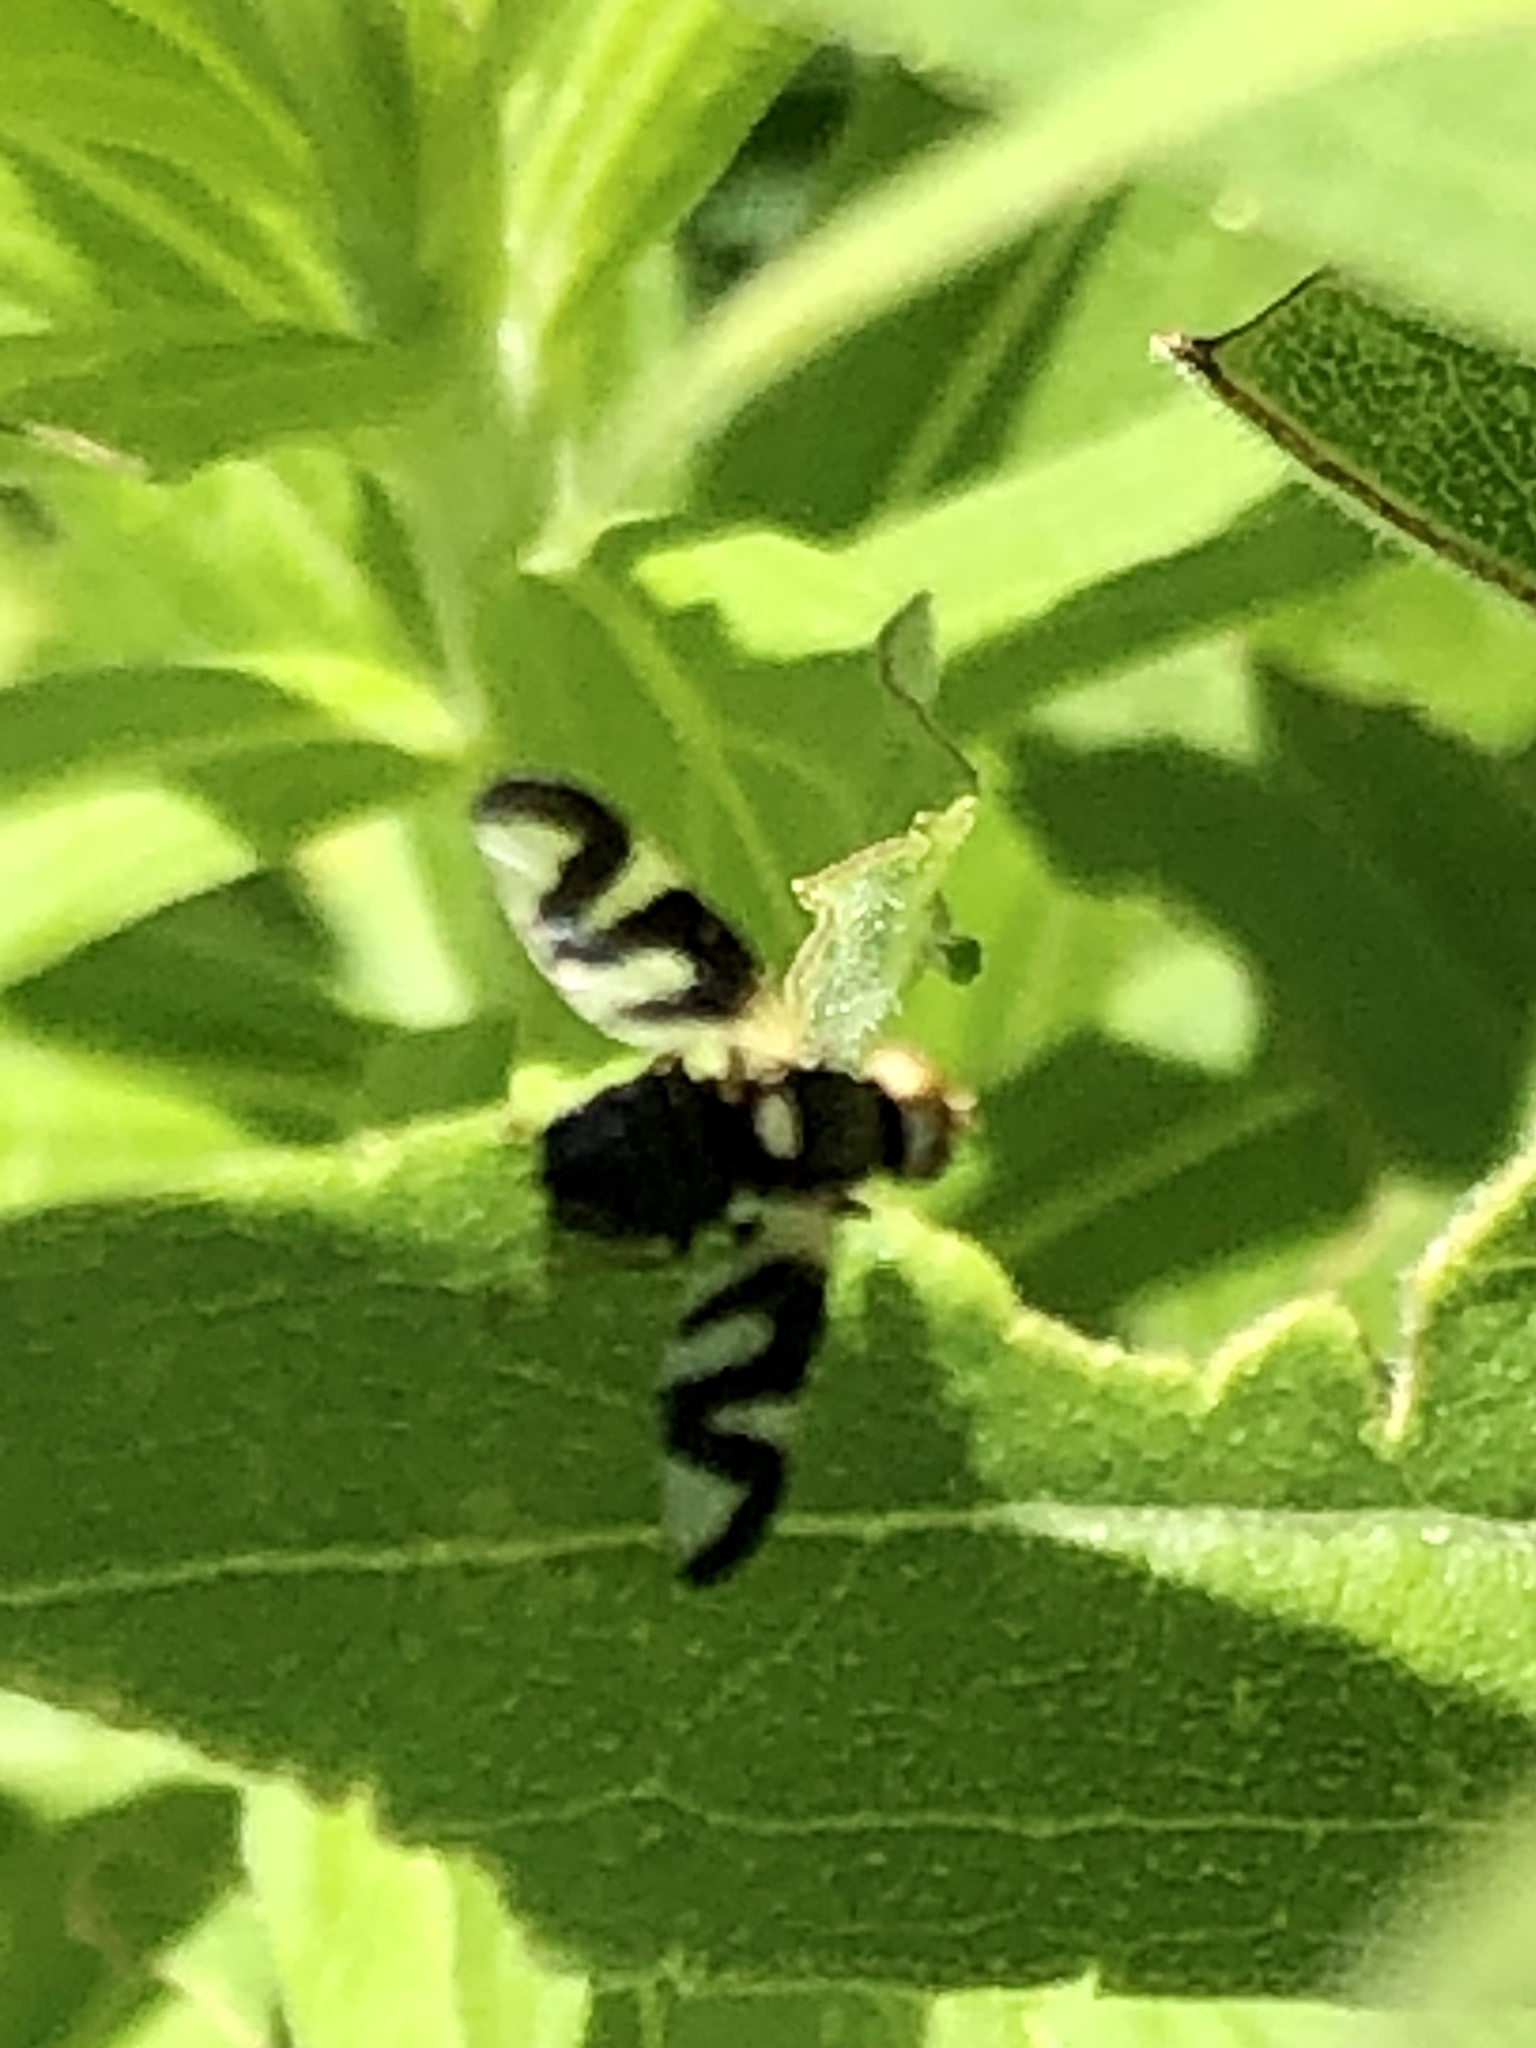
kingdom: Animalia
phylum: Arthropoda
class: Insecta
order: Diptera
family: Tephritidae
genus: Urophora
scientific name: Urophora cardui
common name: Fruit fly
